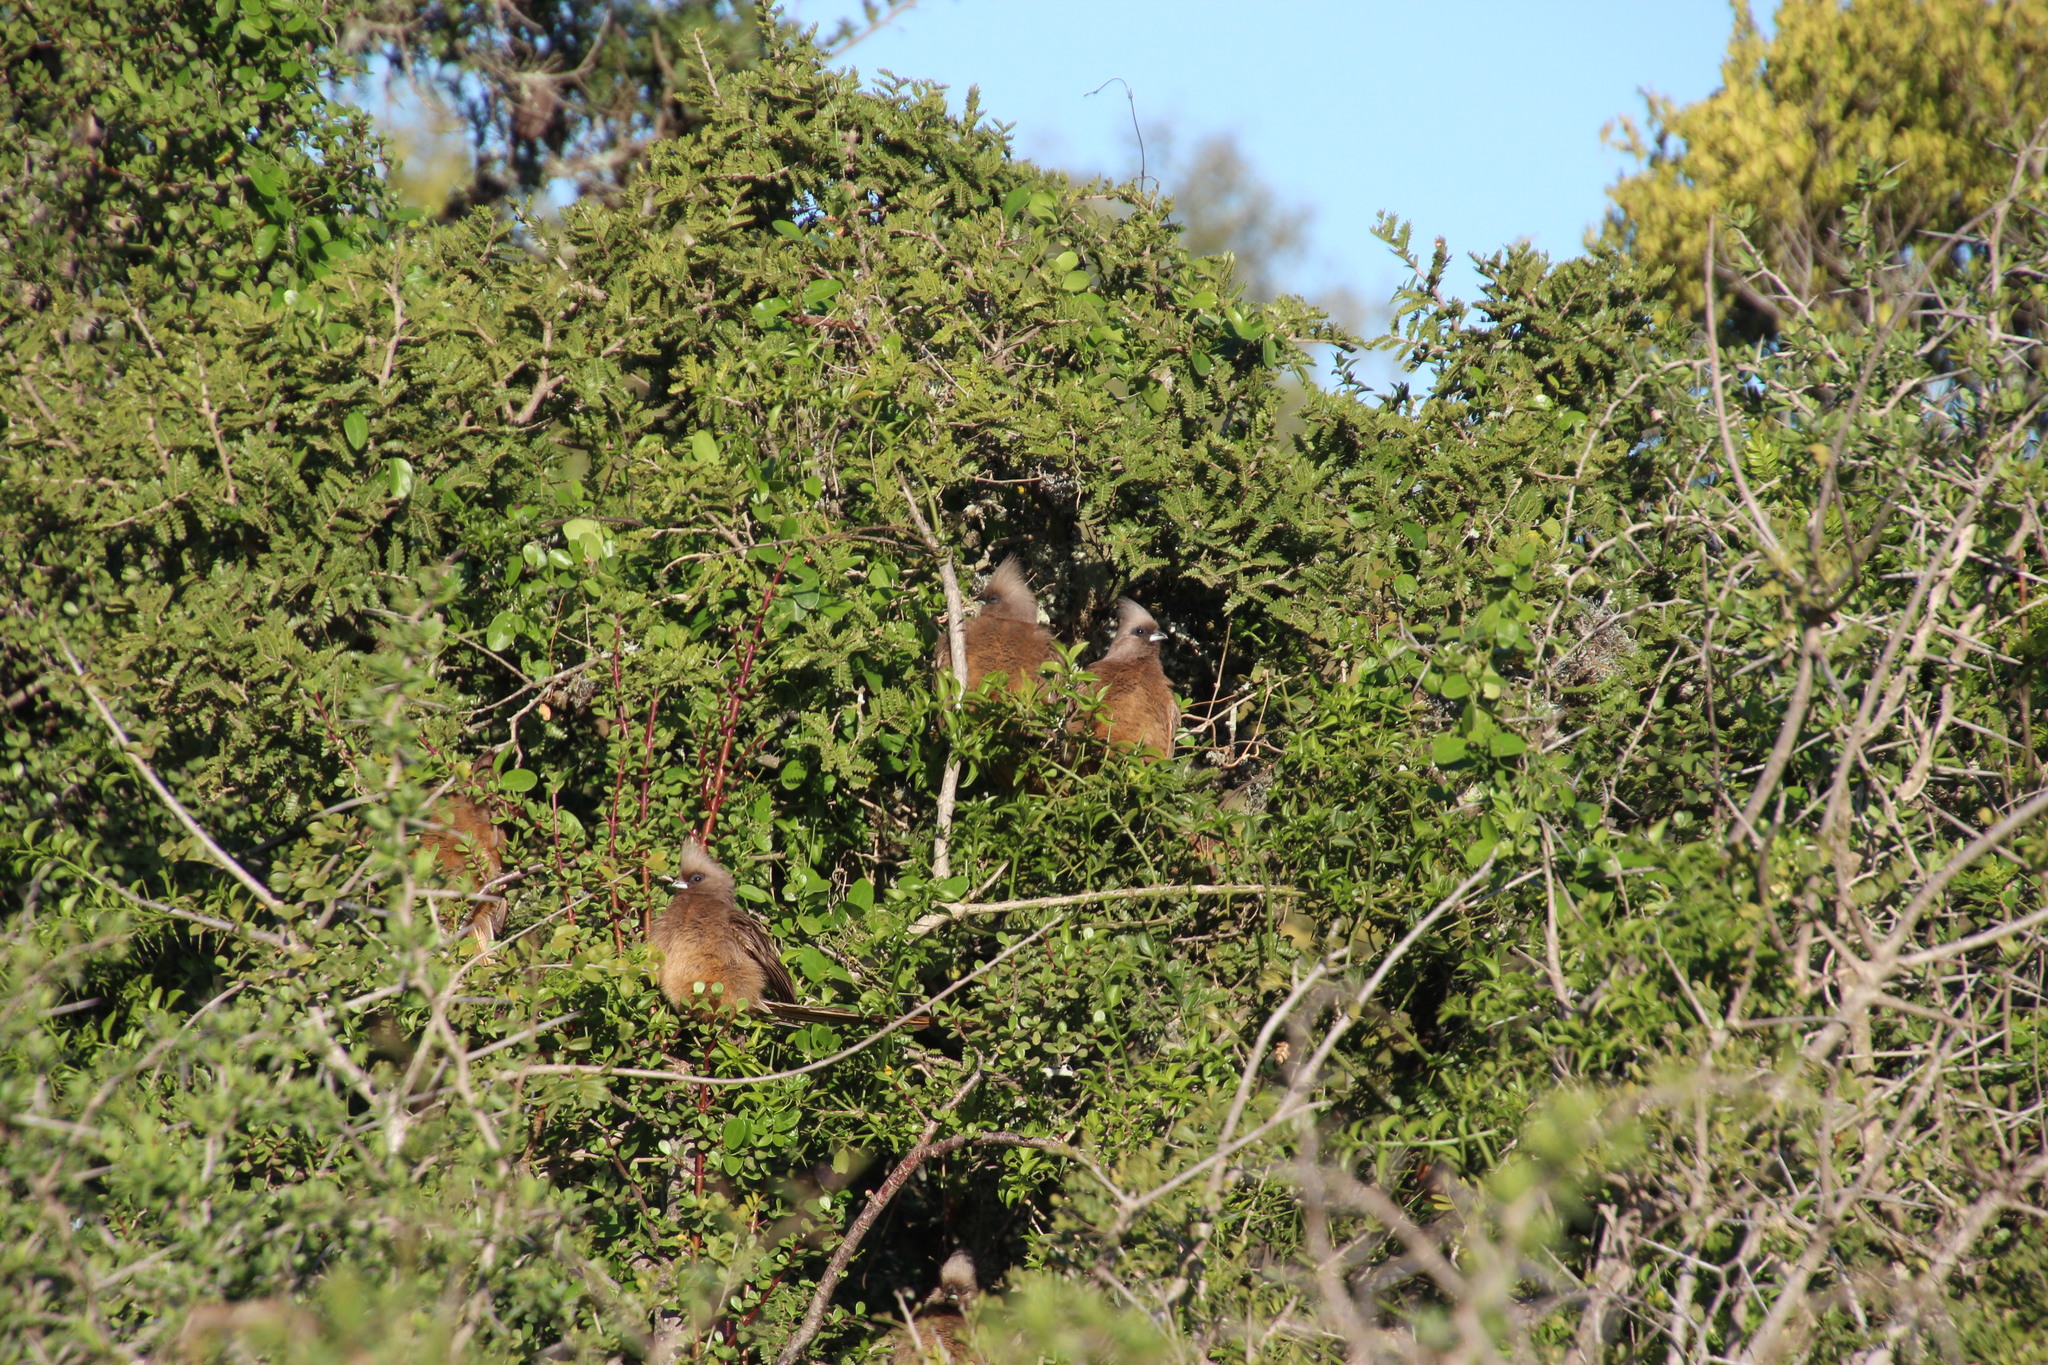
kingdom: Animalia
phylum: Chordata
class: Aves
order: Coliiformes
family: Coliidae
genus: Colius
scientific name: Colius striatus
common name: Speckled mousebird
